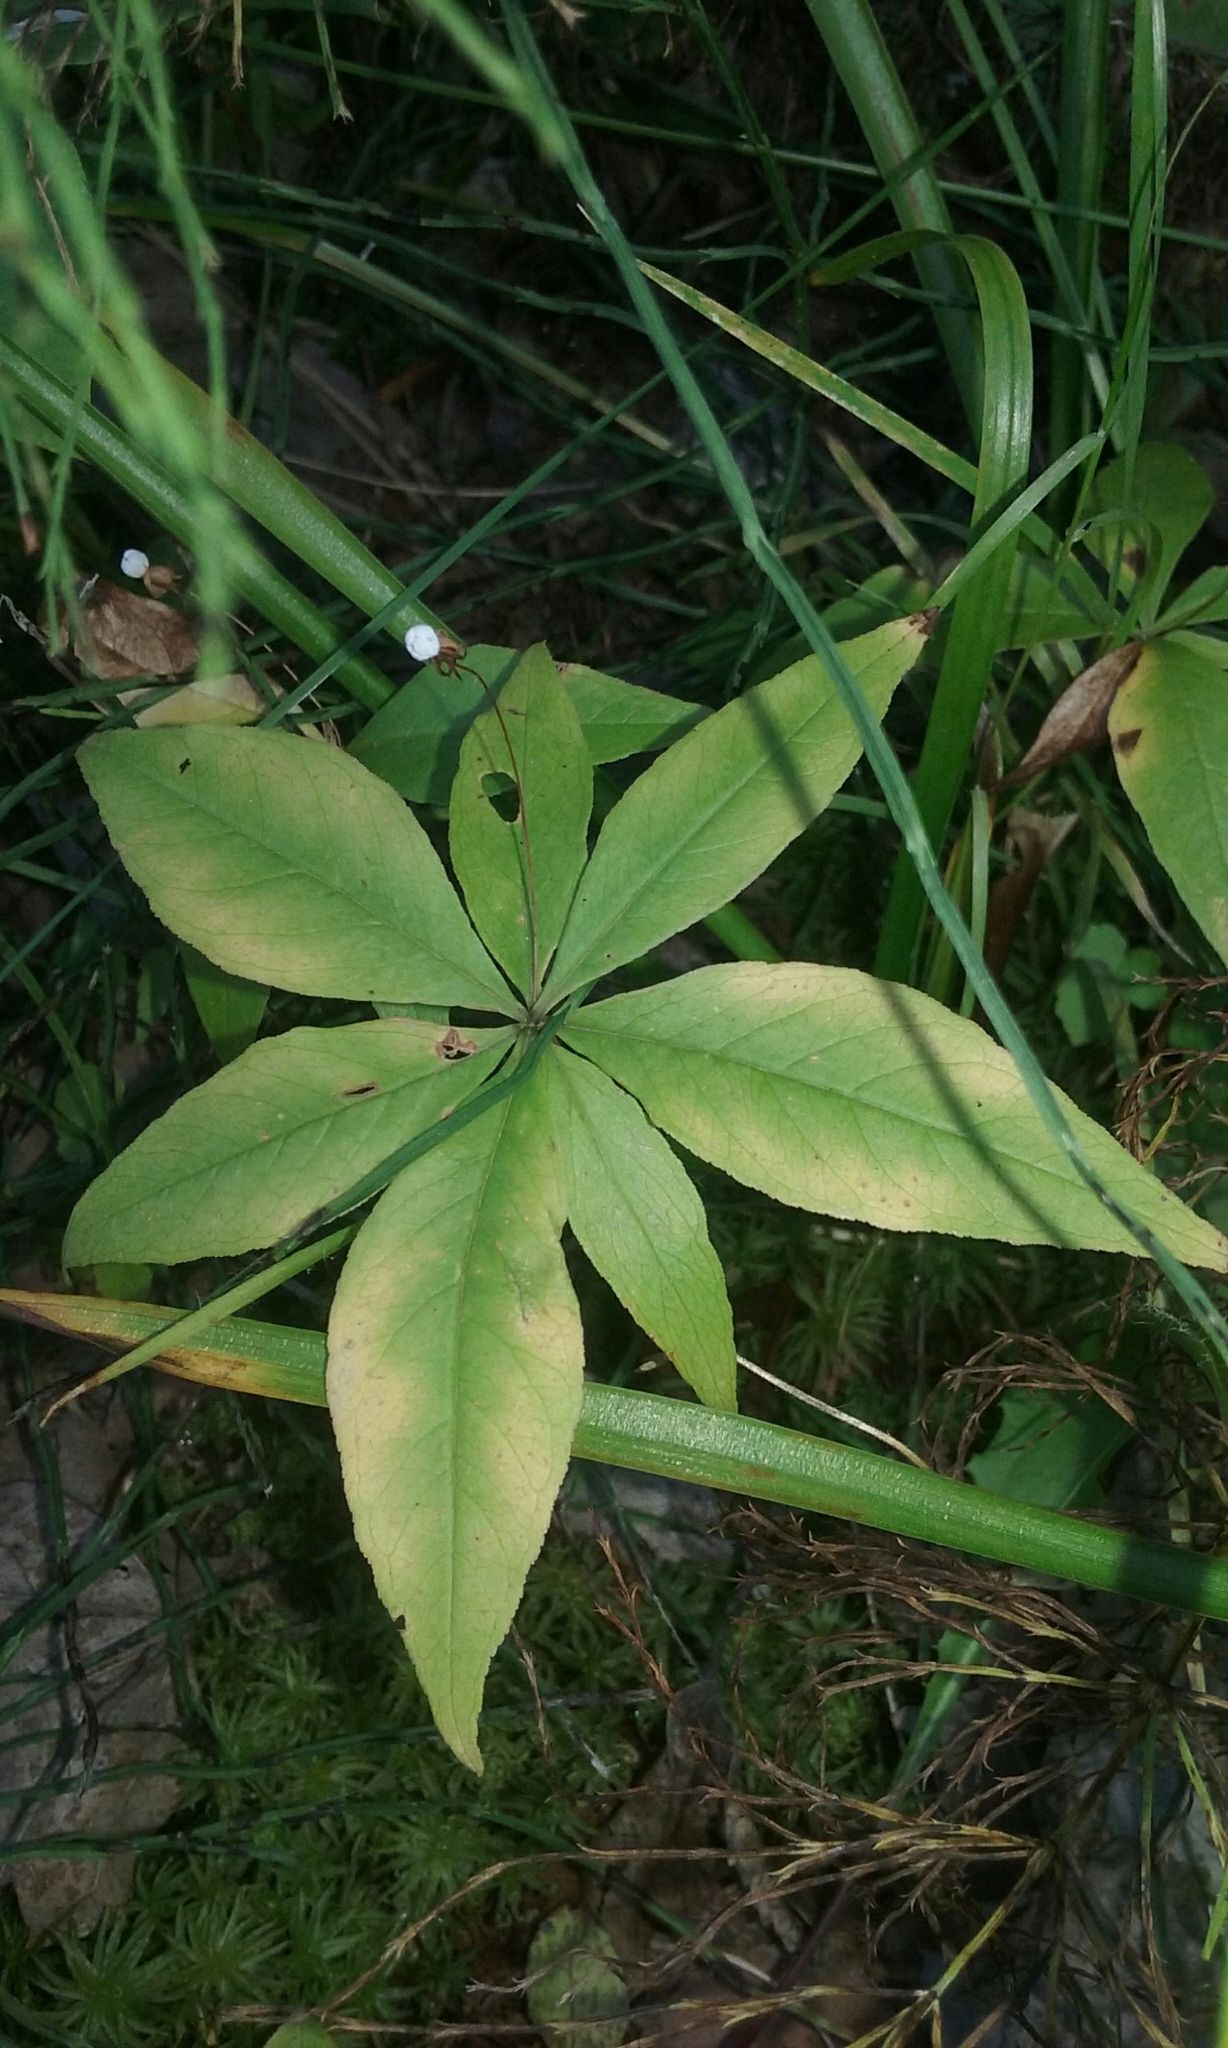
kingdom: Plantae
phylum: Tracheophyta
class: Magnoliopsida
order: Ericales
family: Primulaceae
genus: Lysimachia
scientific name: Lysimachia borealis
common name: American starflower
